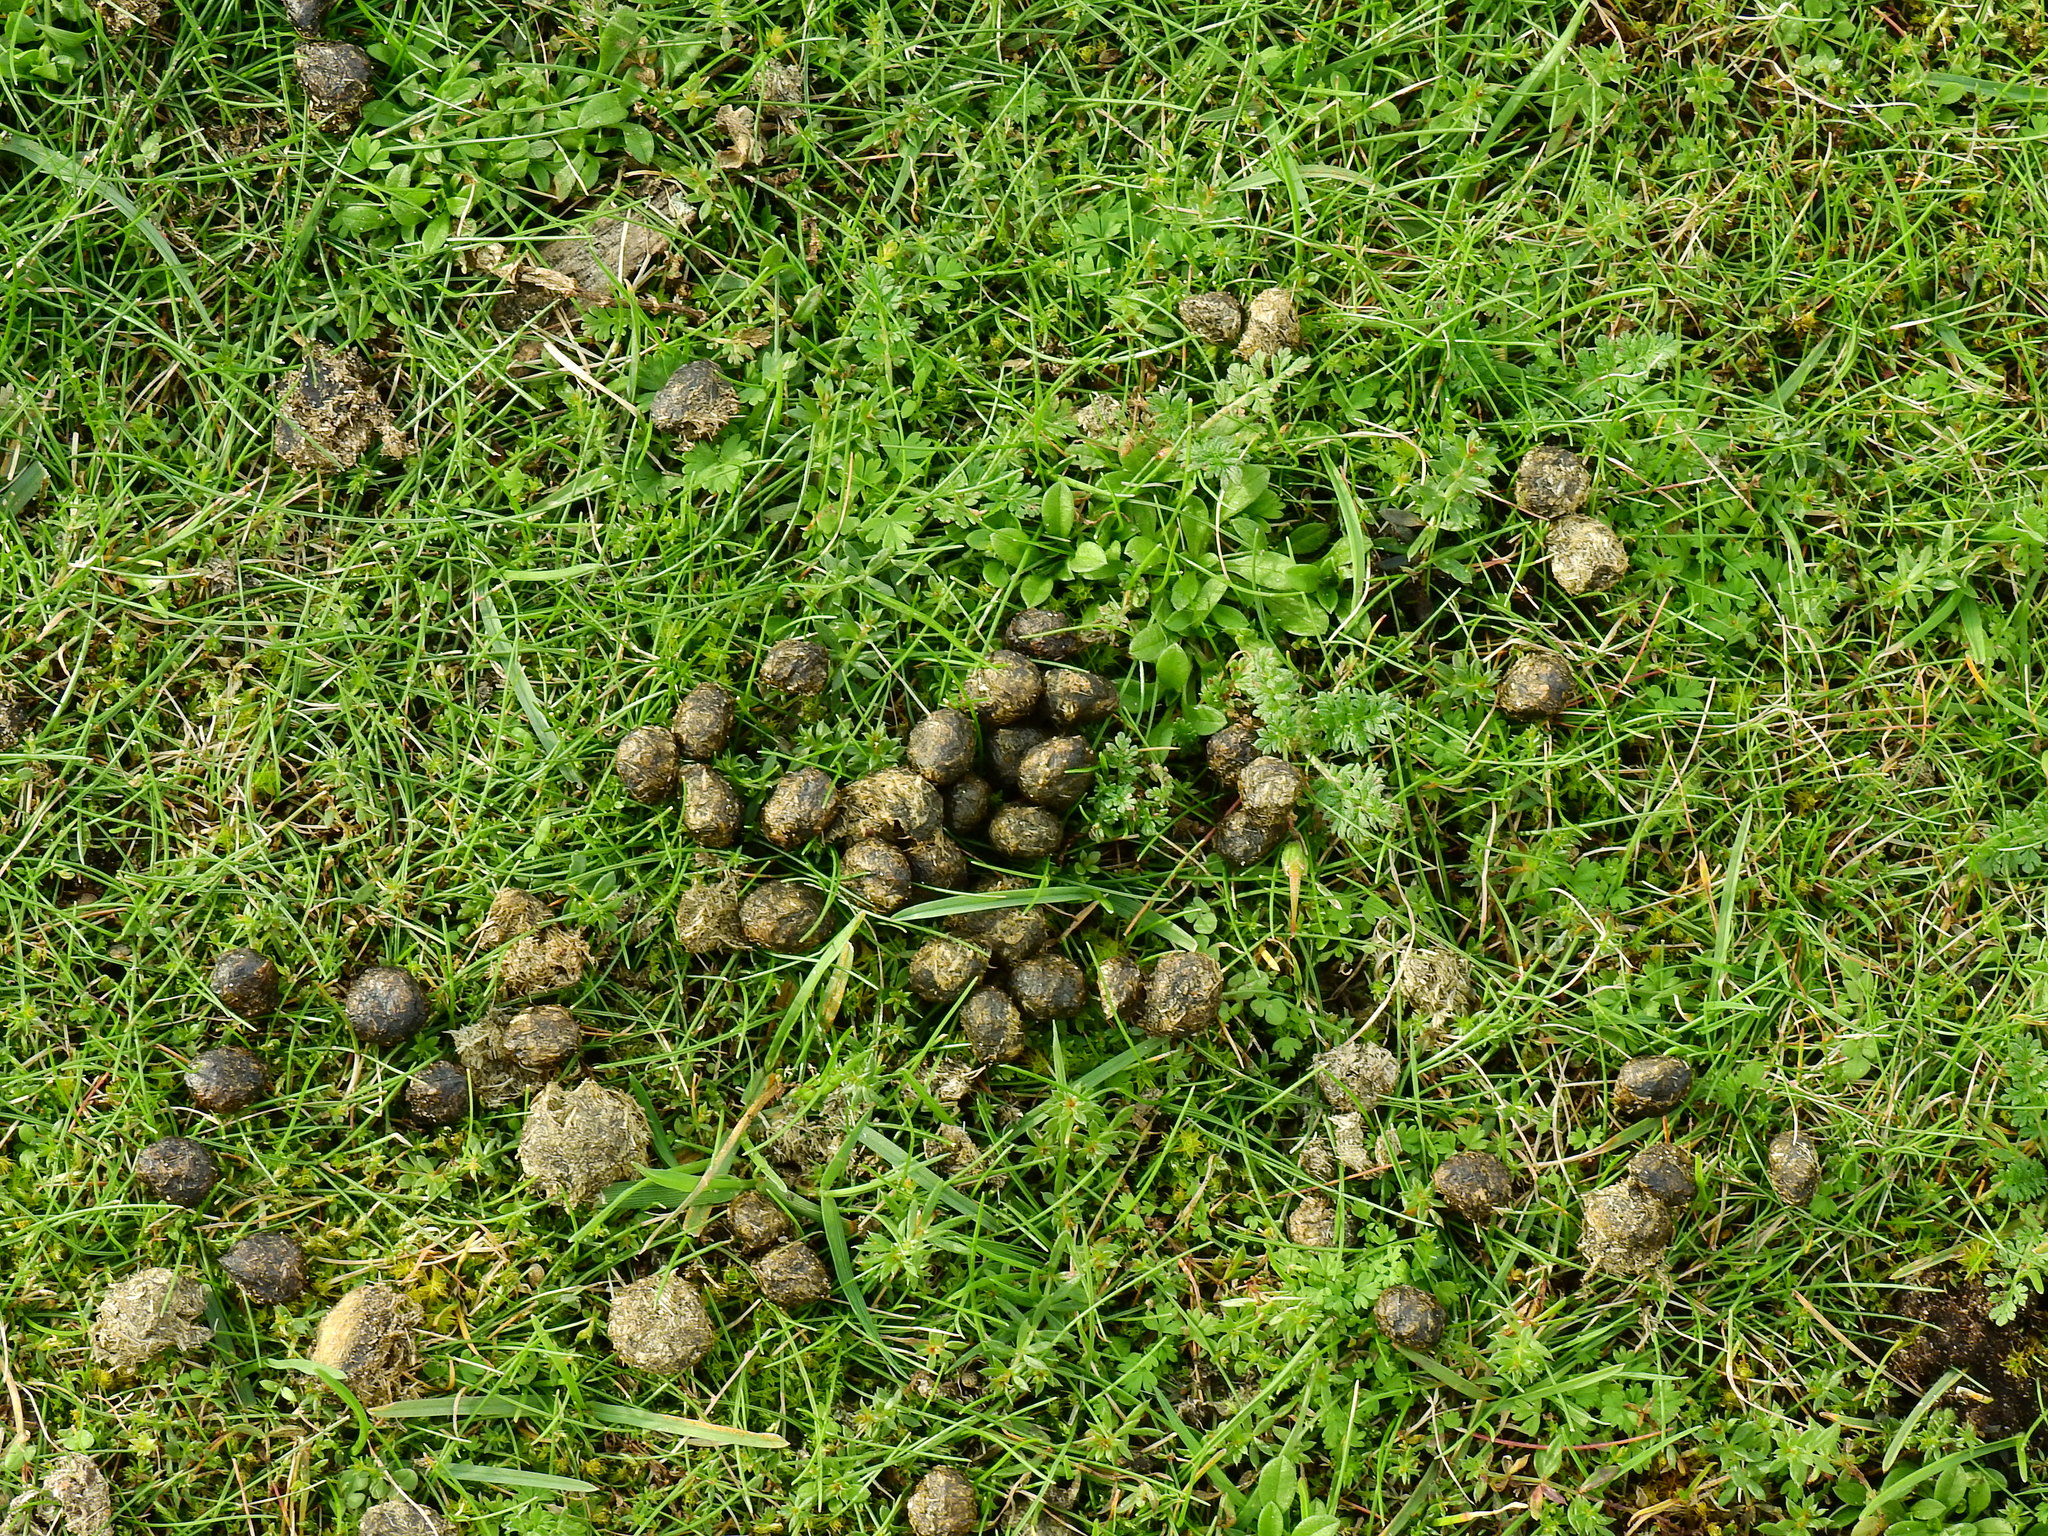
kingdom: Animalia
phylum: Chordata
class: Mammalia
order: Lagomorpha
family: Leporidae
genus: Oryctolagus
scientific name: Oryctolagus cuniculus
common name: European rabbit
